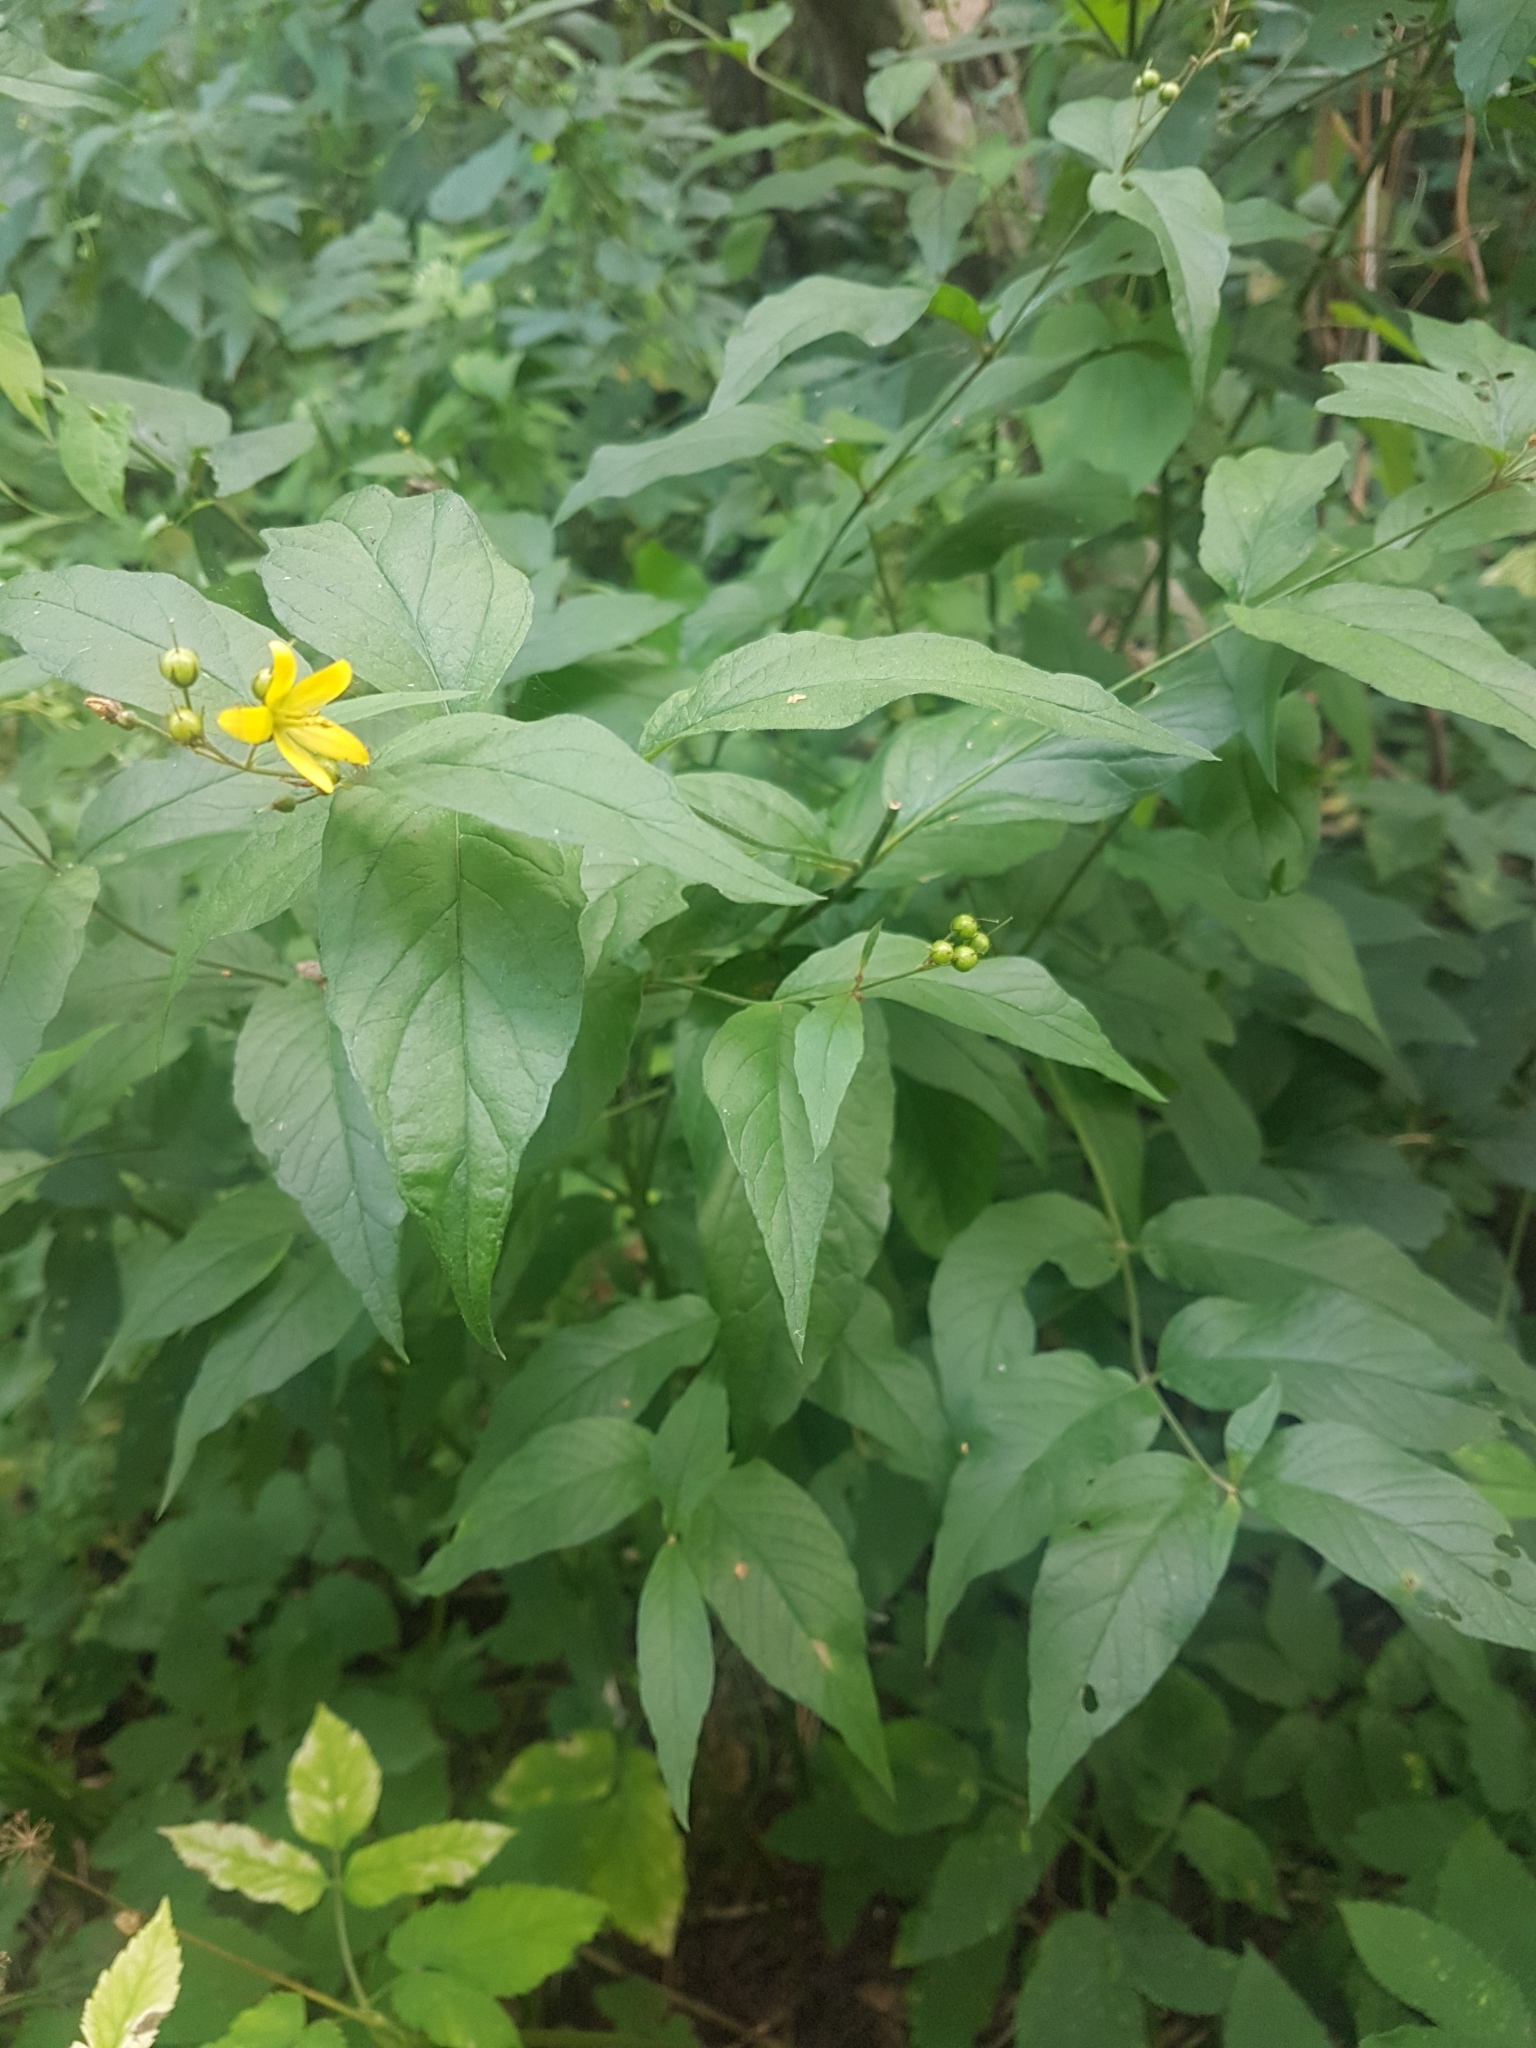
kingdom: Plantae
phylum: Tracheophyta
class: Magnoliopsida
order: Ericales
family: Primulaceae
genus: Lysimachia
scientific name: Lysimachia vulgaris
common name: Yellow loosestrife
